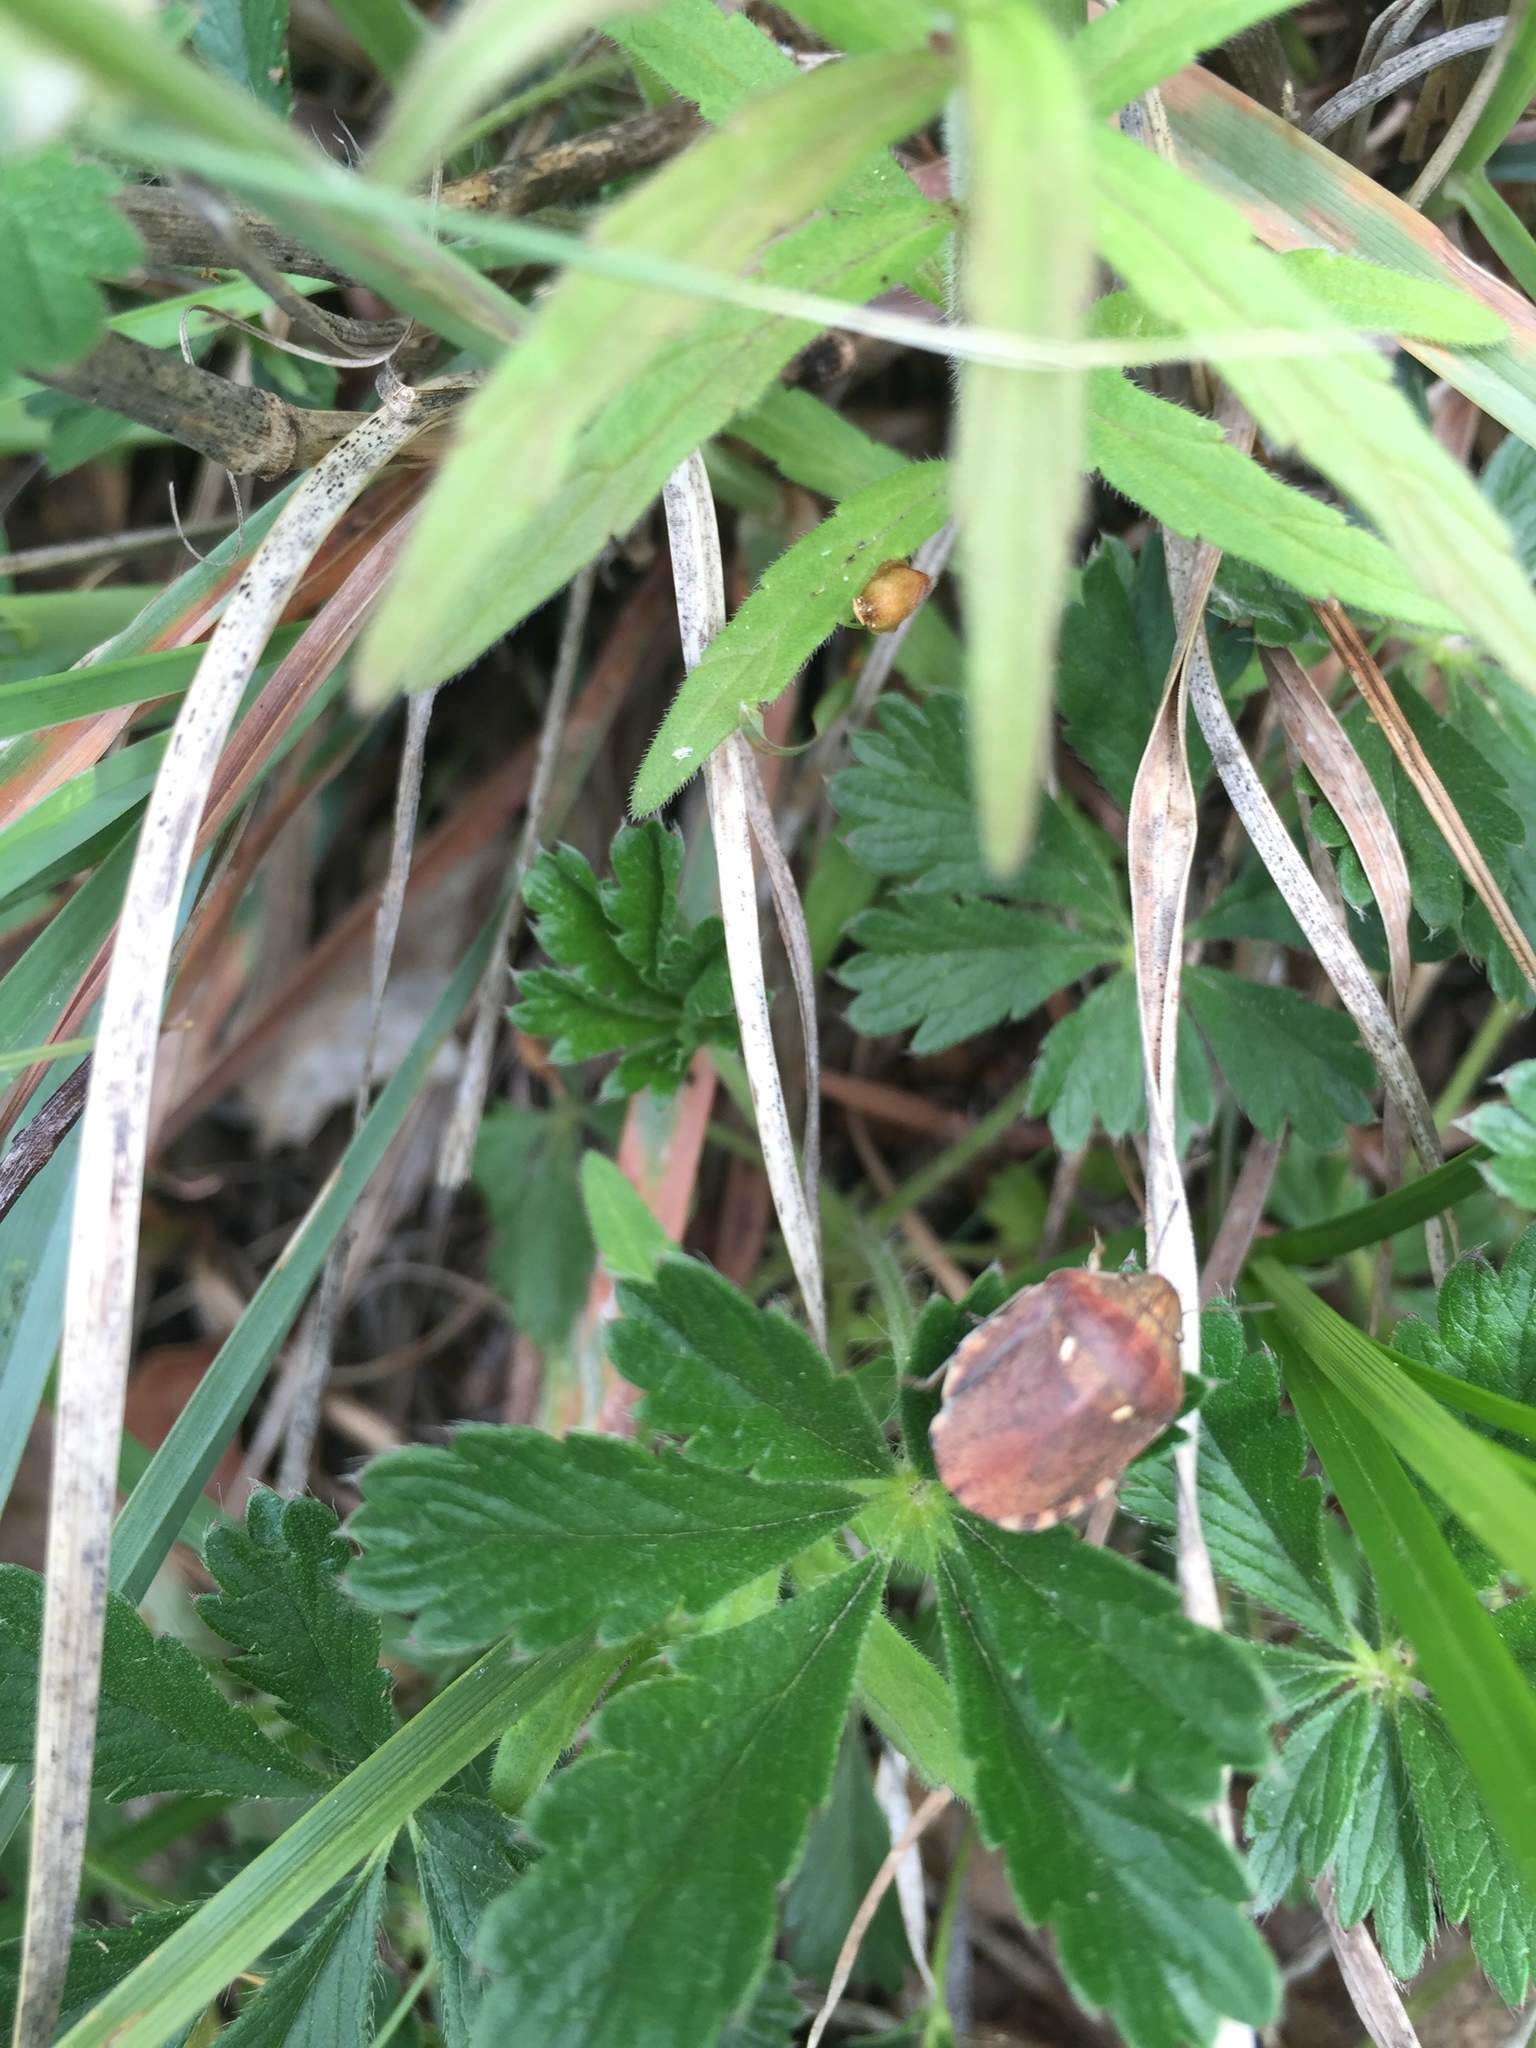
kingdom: Animalia
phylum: Arthropoda
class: Insecta
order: Hemiptera
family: Scutelleridae
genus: Eurygaster
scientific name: Eurygaster maura
